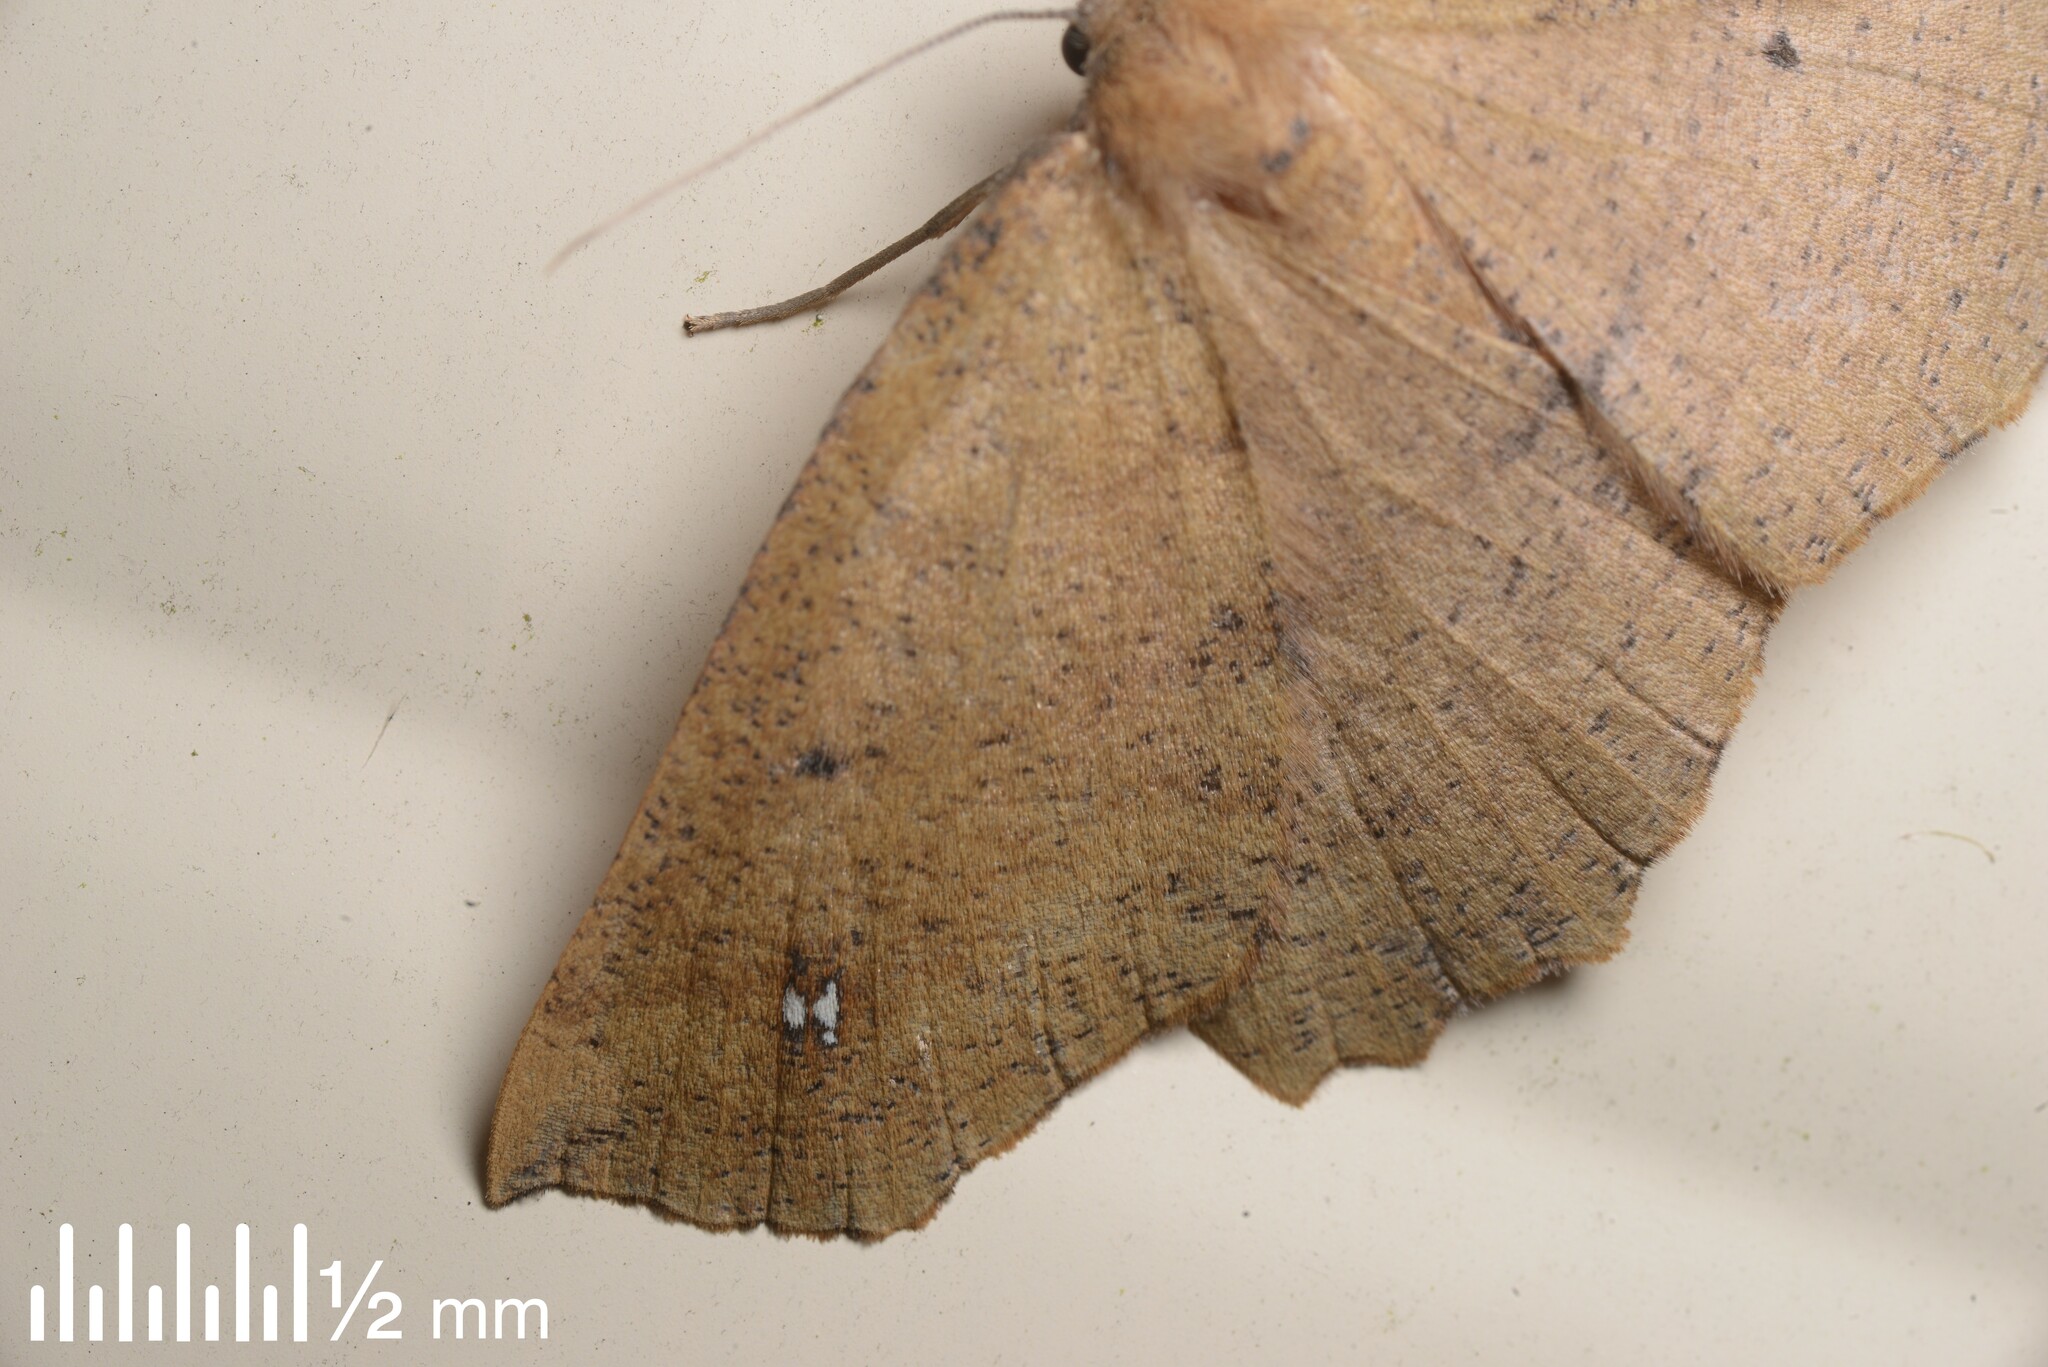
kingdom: Animalia
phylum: Arthropoda
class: Insecta
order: Lepidoptera
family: Geometridae
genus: Xyridacma
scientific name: Xyridacma ustaria
